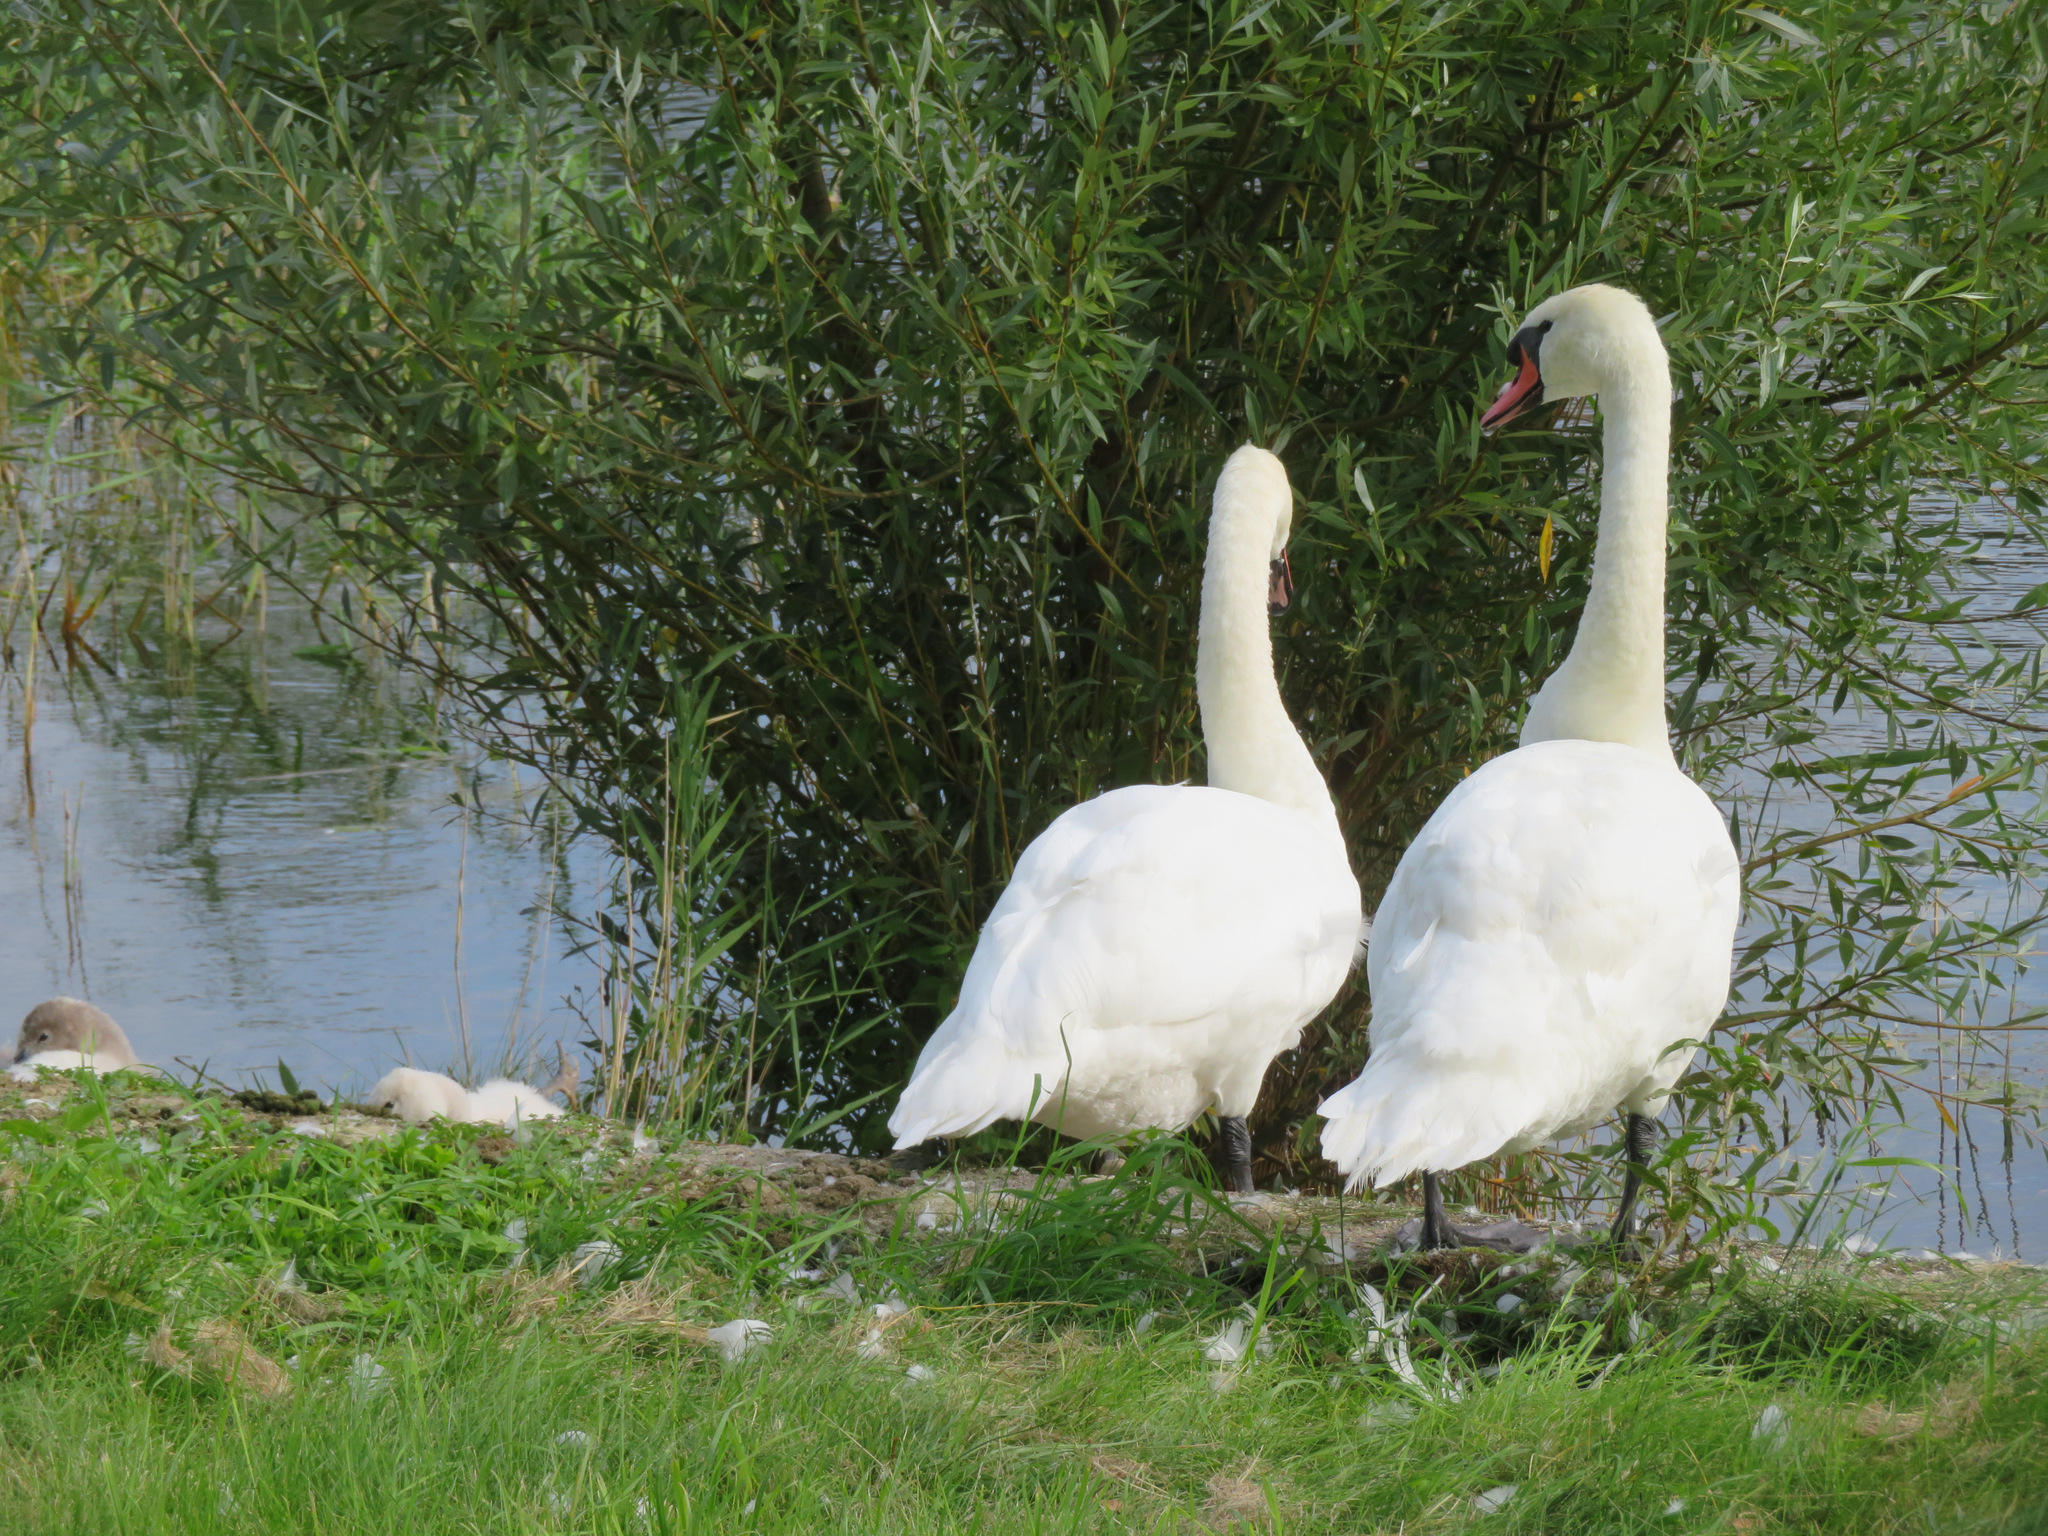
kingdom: Animalia
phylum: Chordata
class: Aves
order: Anseriformes
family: Anatidae
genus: Cygnus
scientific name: Cygnus olor
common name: Mute swan
